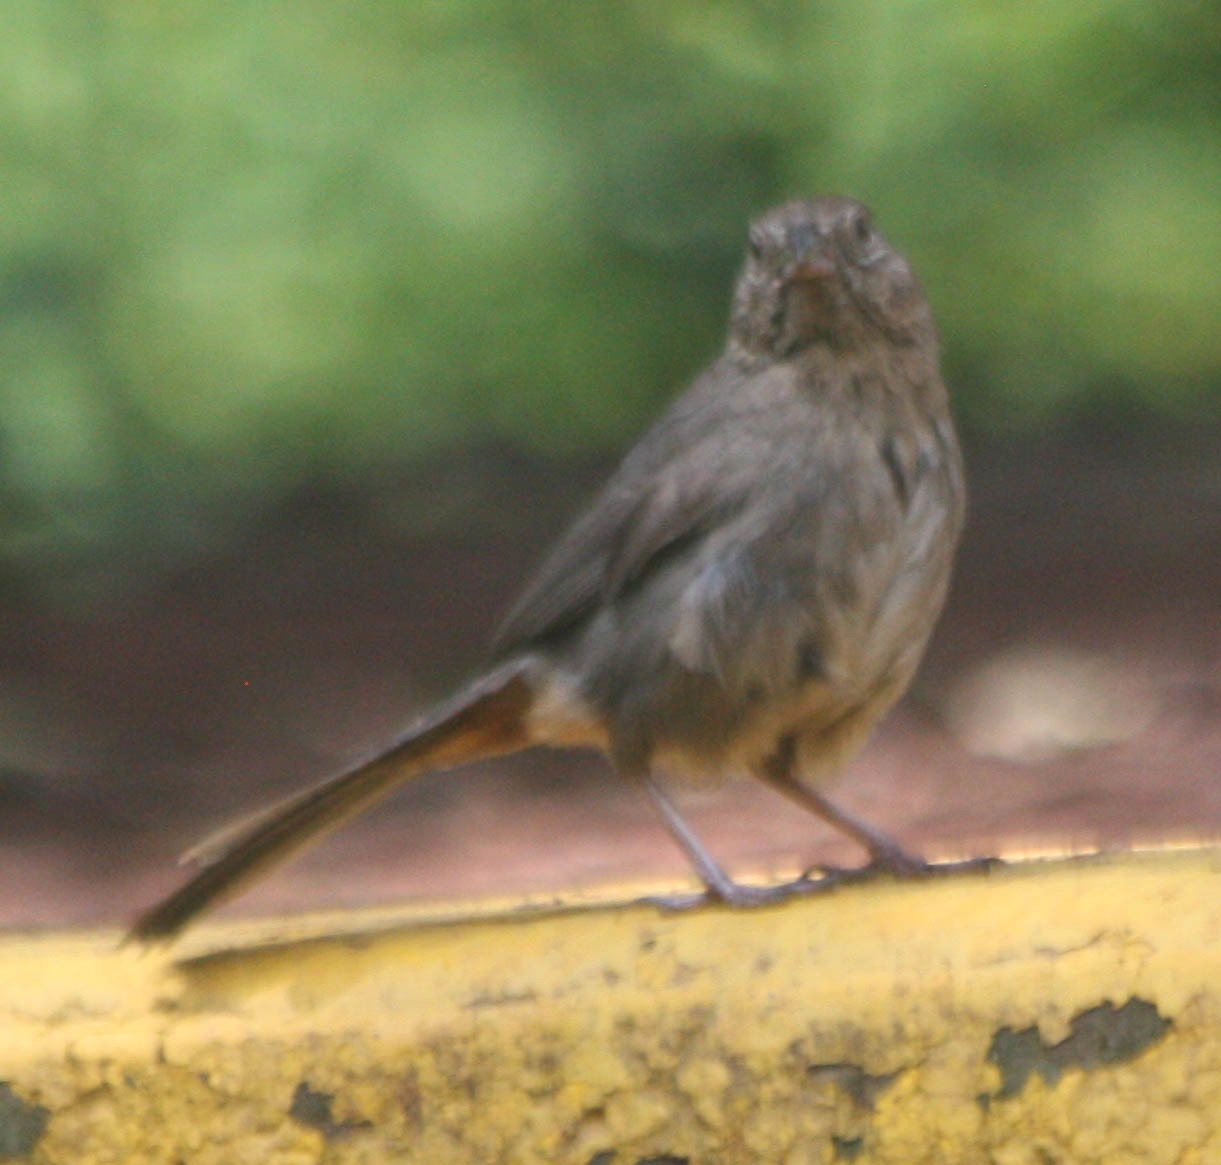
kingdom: Animalia
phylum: Chordata
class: Aves
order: Passeriformes
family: Passerellidae
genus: Melozone
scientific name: Melozone fusca
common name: Canyon towhee
